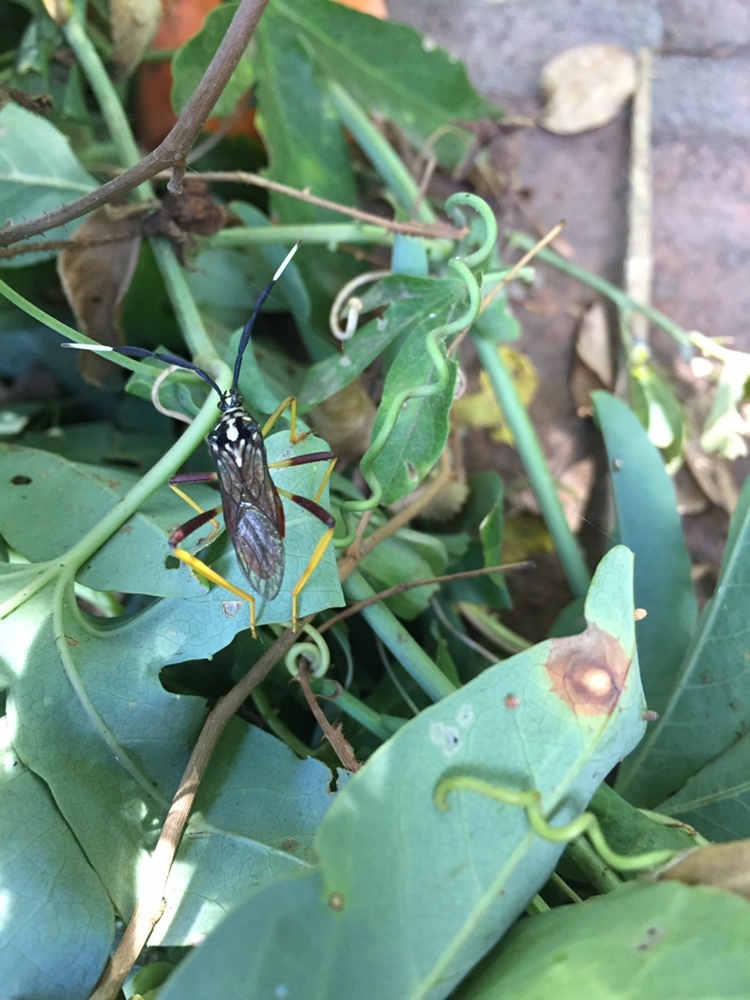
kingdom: Animalia
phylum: Arthropoda
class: Insecta
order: Hemiptera
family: Coreidae
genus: Holhymenia
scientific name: Holhymenia histrio
